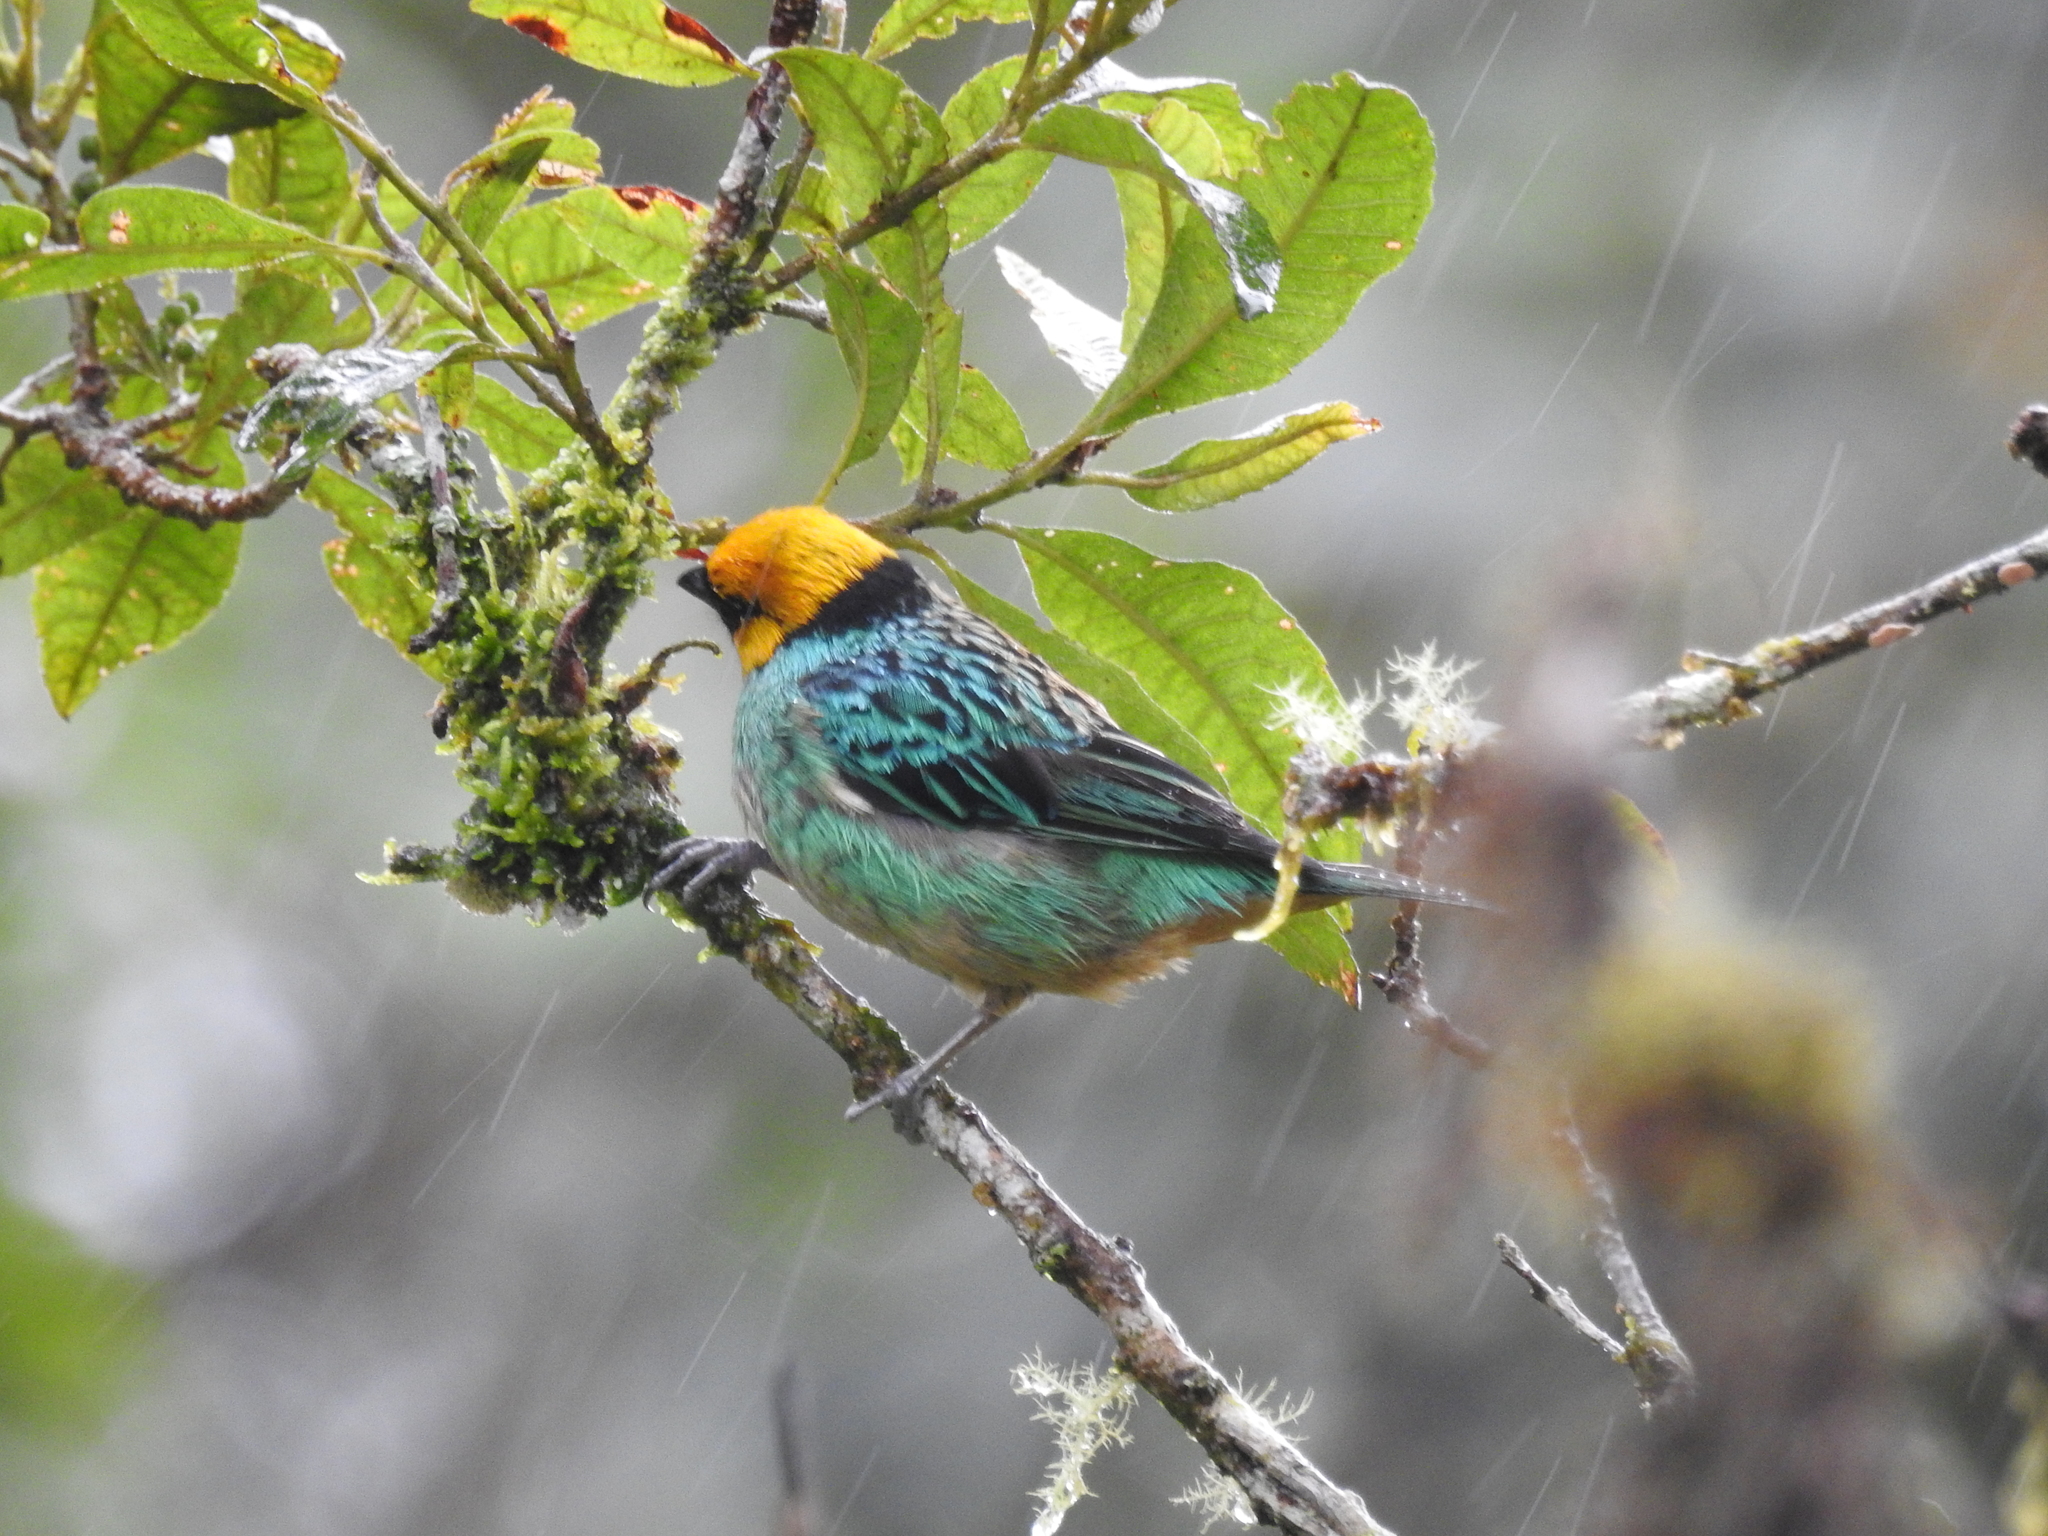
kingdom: Animalia
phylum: Chordata
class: Aves
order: Passeriformes
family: Thraupidae
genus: Tangara
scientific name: Tangara xanthocephala
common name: Saffron-crowned tanager
